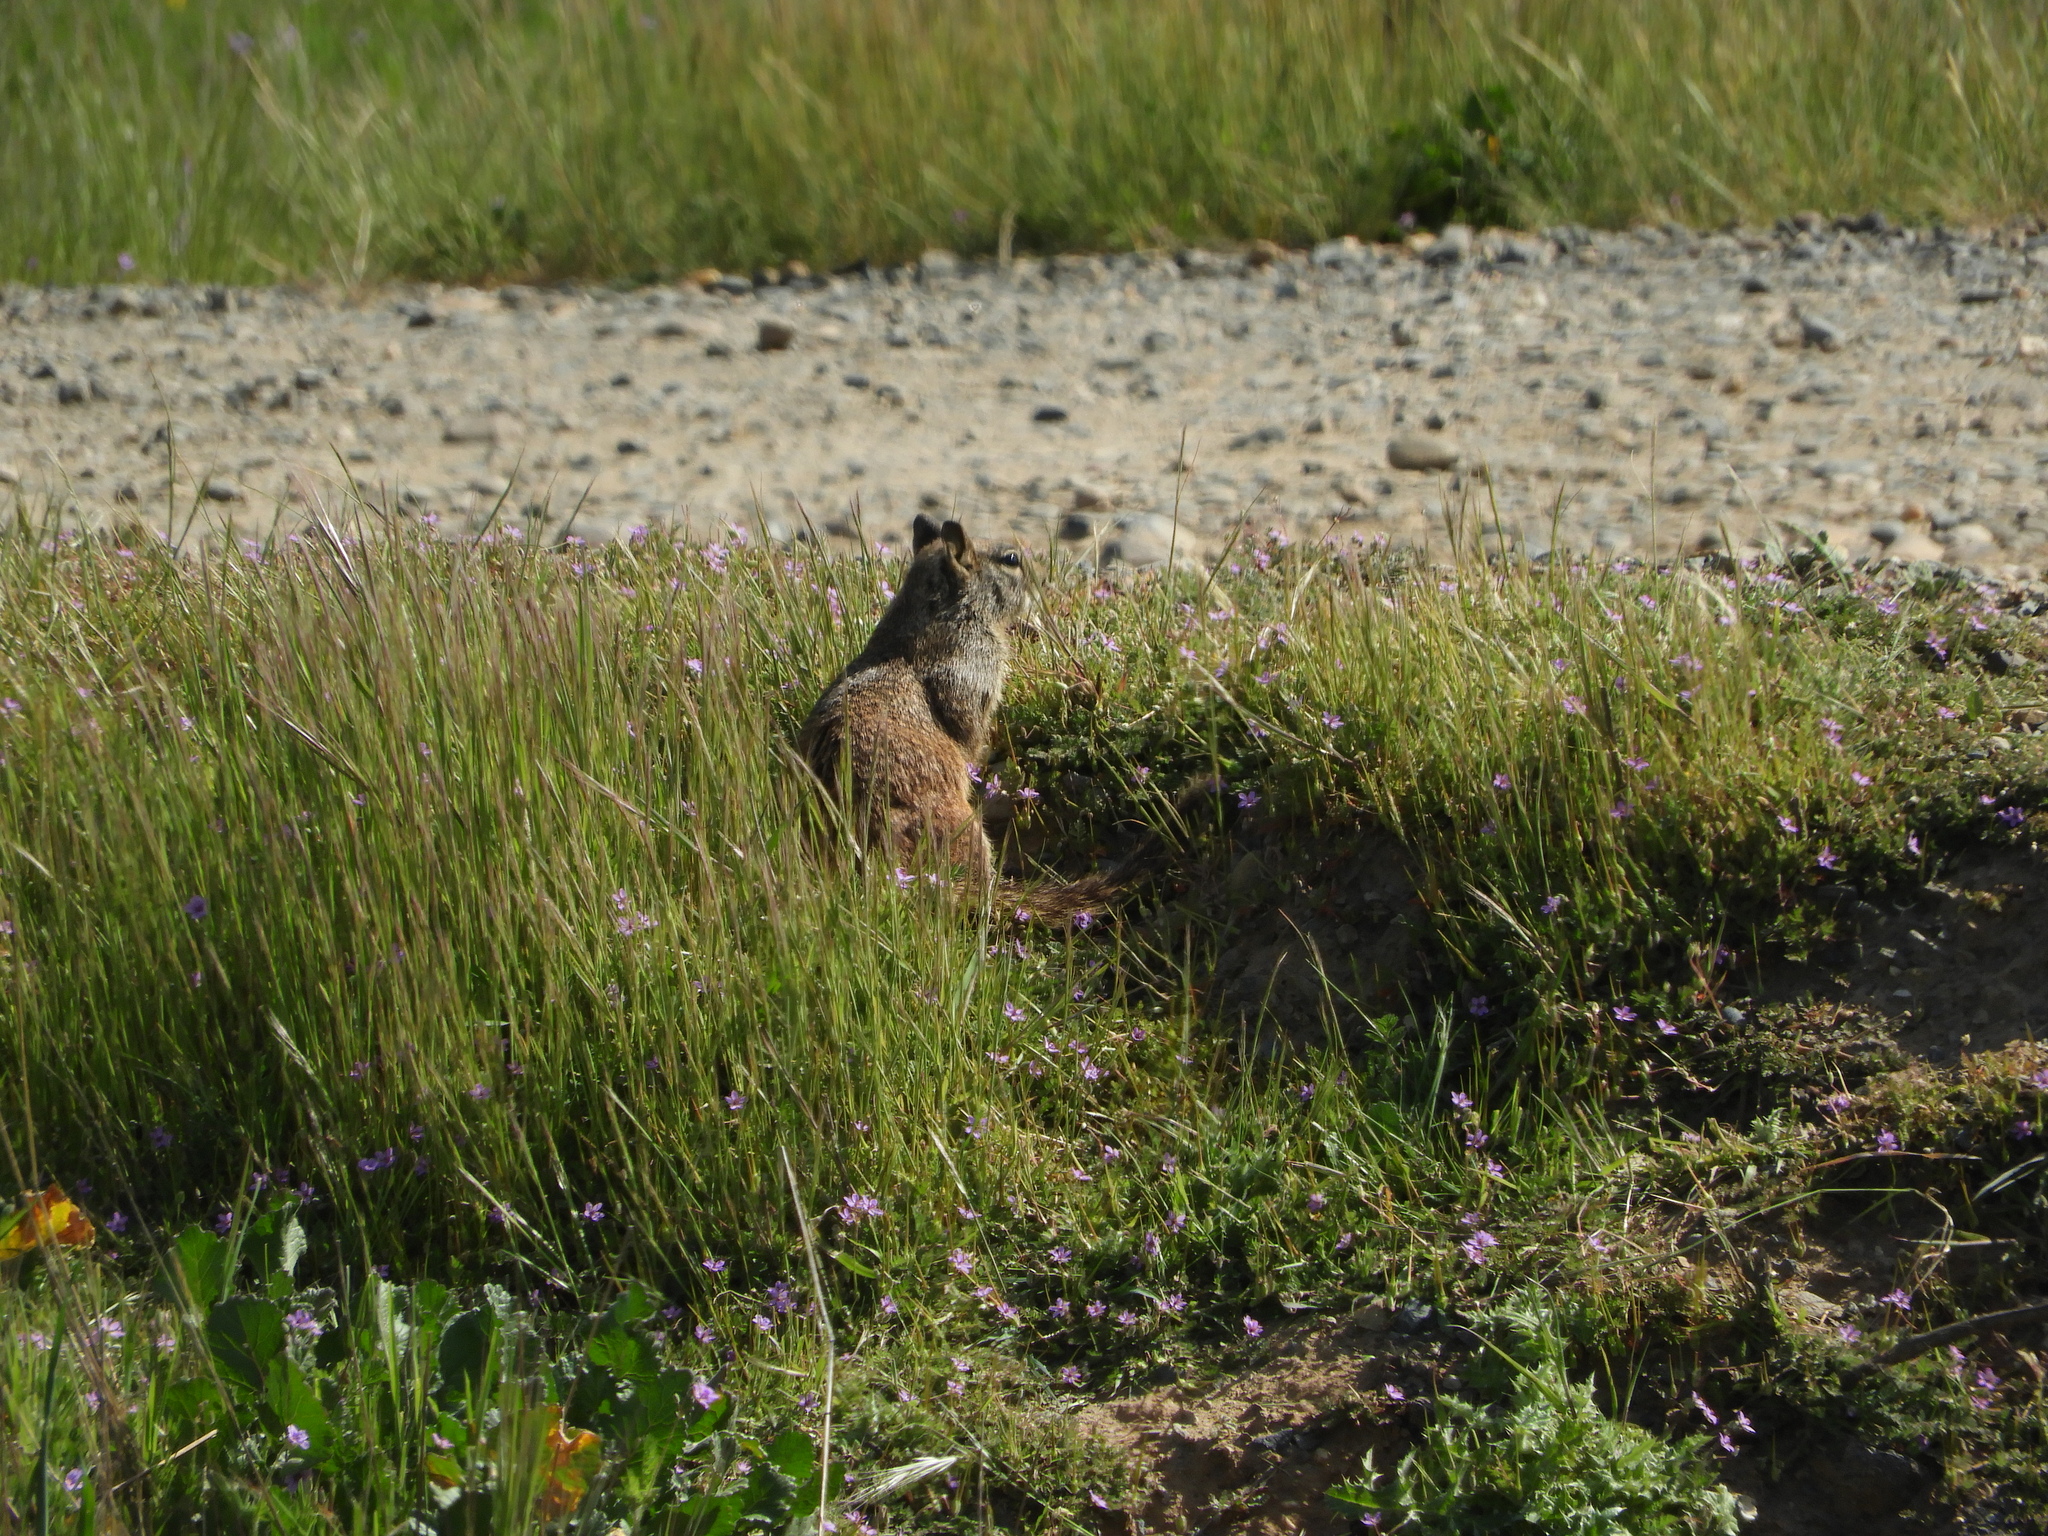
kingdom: Animalia
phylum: Chordata
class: Mammalia
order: Rodentia
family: Sciuridae
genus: Otospermophilus
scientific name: Otospermophilus beecheyi
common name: California ground squirrel
